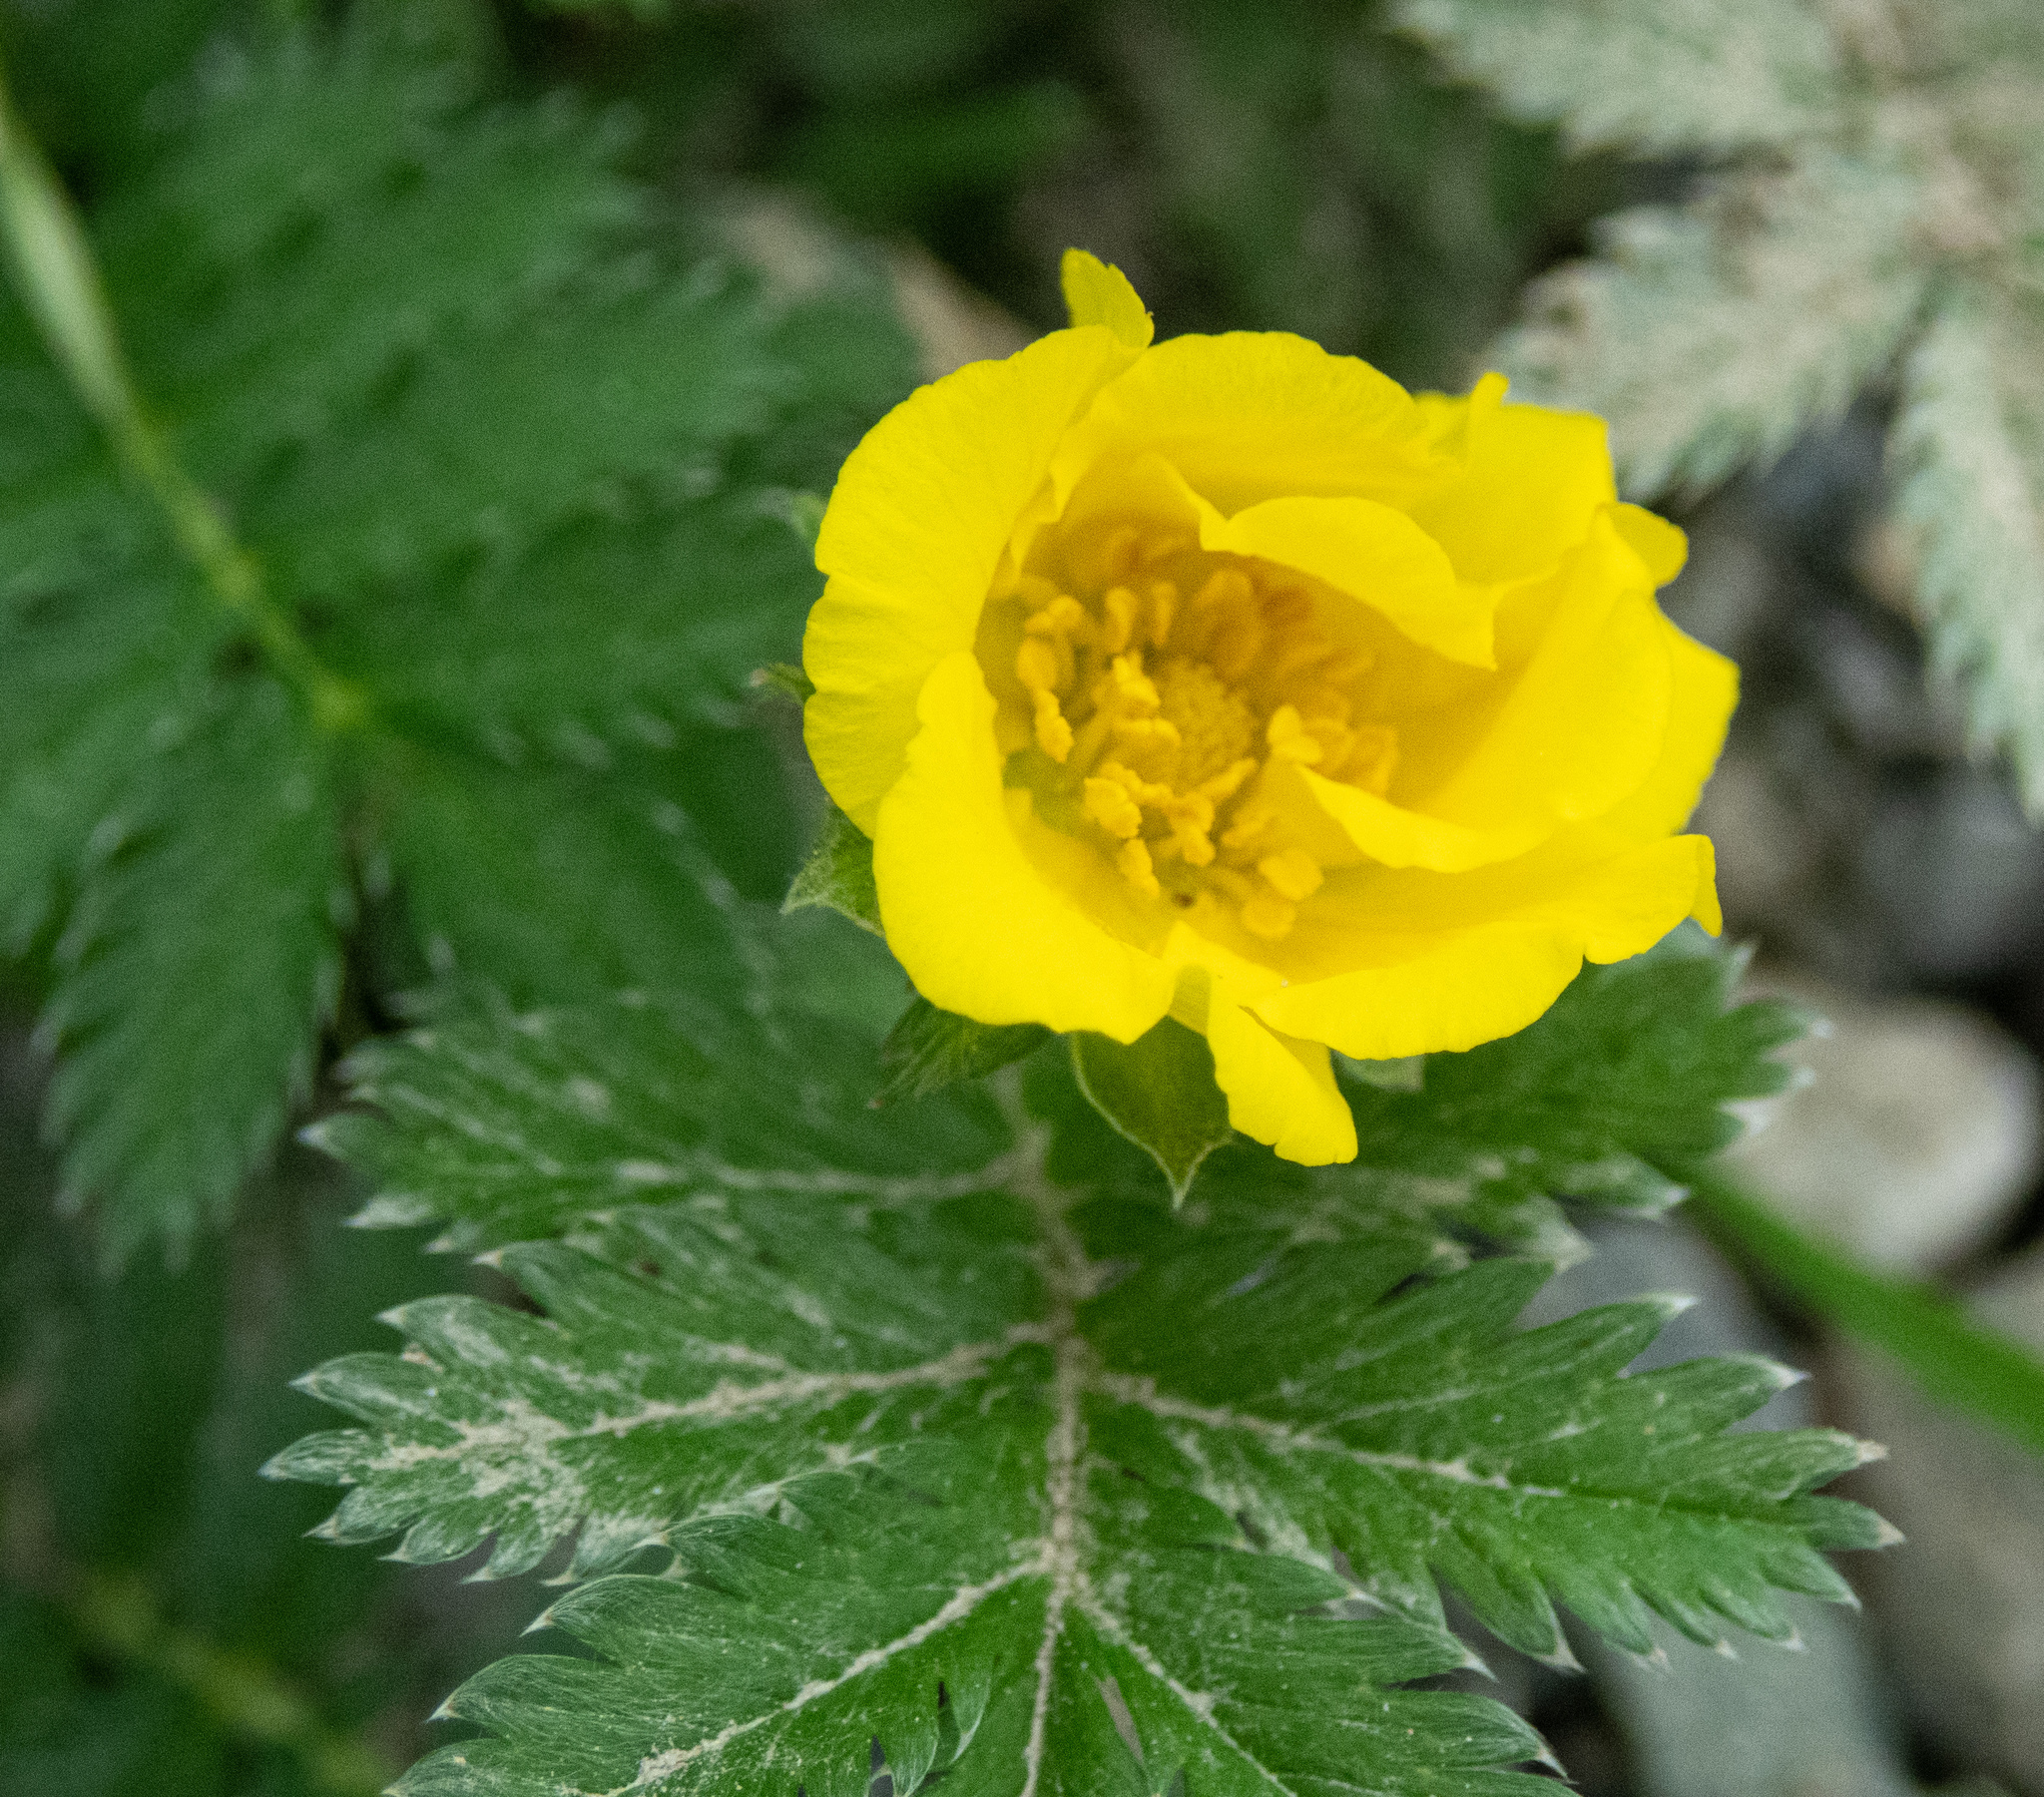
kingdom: Plantae
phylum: Tracheophyta
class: Magnoliopsida
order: Rosales
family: Rosaceae
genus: Argentina
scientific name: Argentina anserina
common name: Common silverweed
